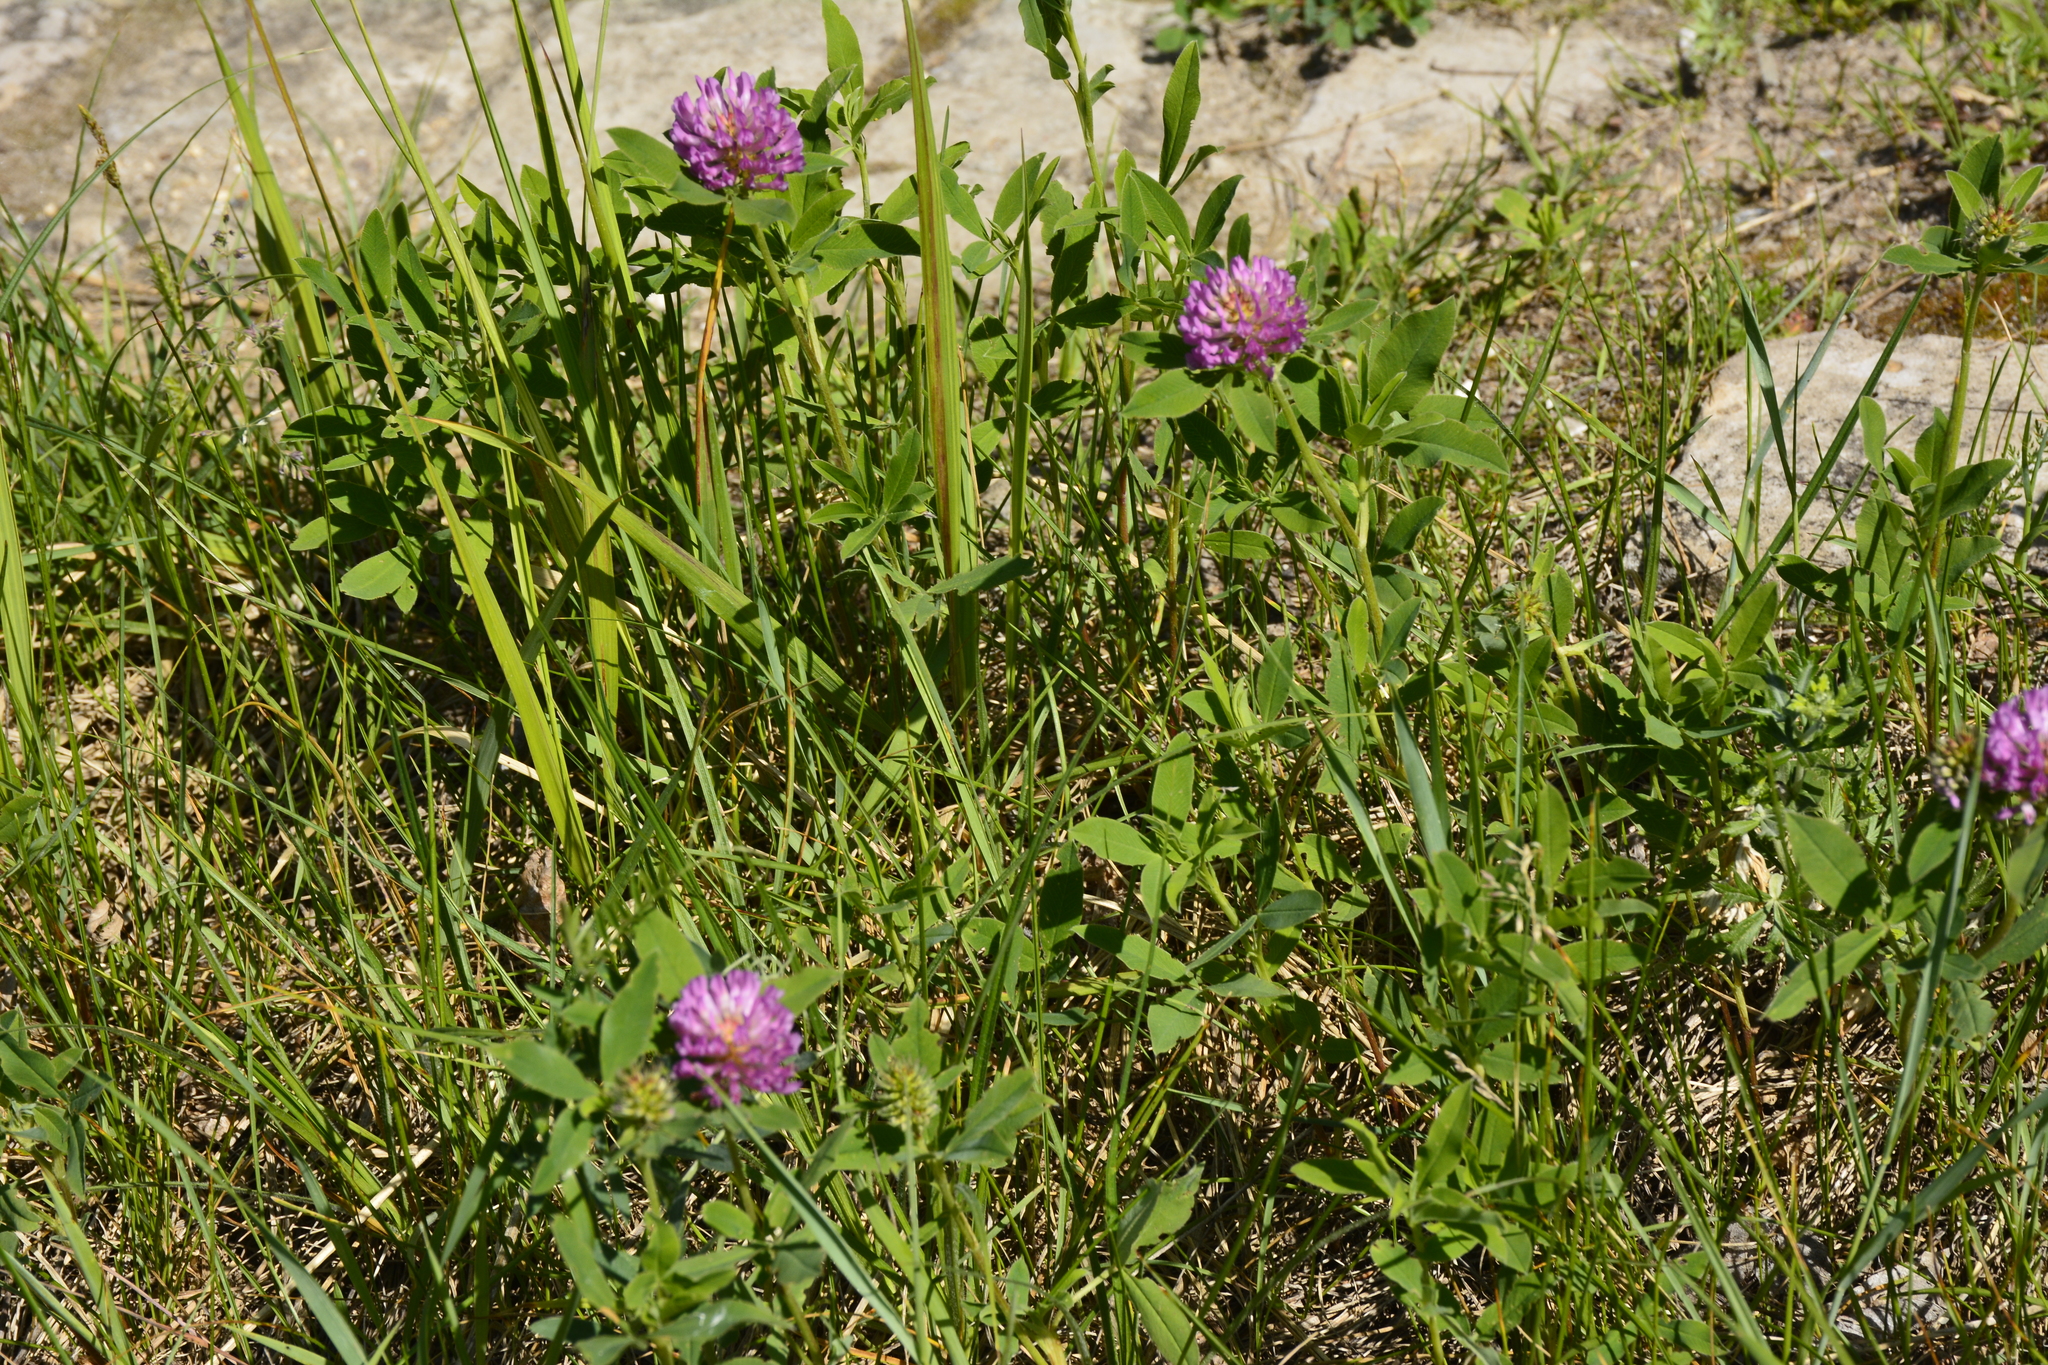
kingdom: Plantae
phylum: Tracheophyta
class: Magnoliopsida
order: Fabales
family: Fabaceae
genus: Trifolium
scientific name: Trifolium medium
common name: Zigzag clover
